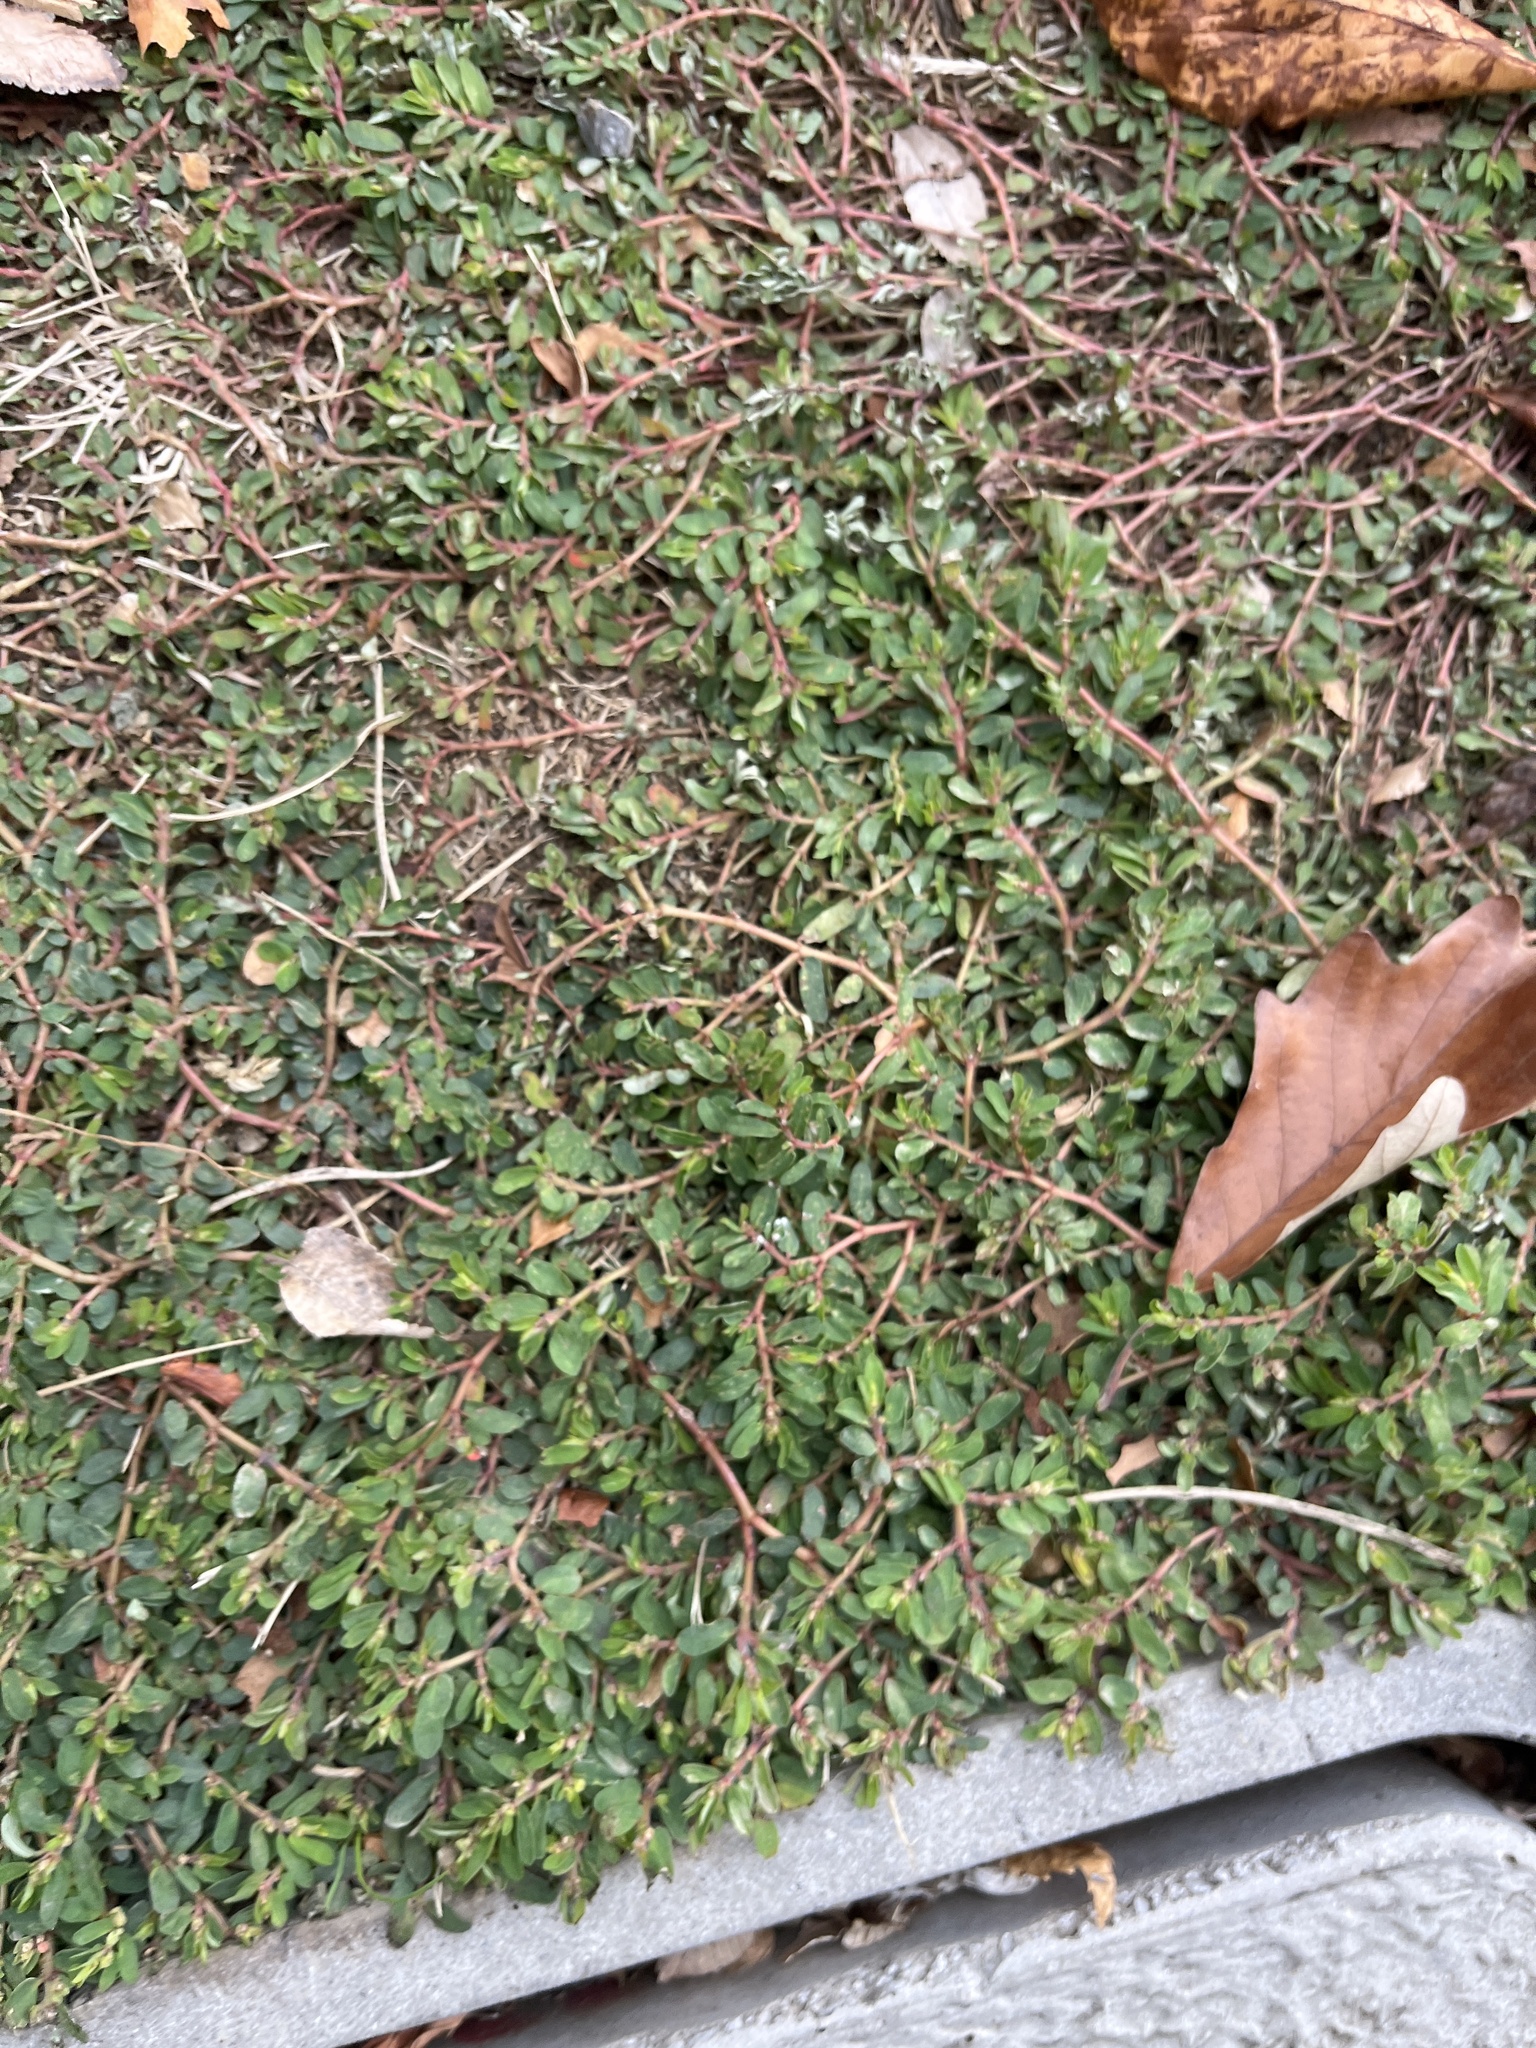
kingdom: Plantae
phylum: Tracheophyta
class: Magnoliopsida
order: Malpighiales
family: Euphorbiaceae
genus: Euphorbia
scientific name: Euphorbia maculata
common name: Spotted spurge
